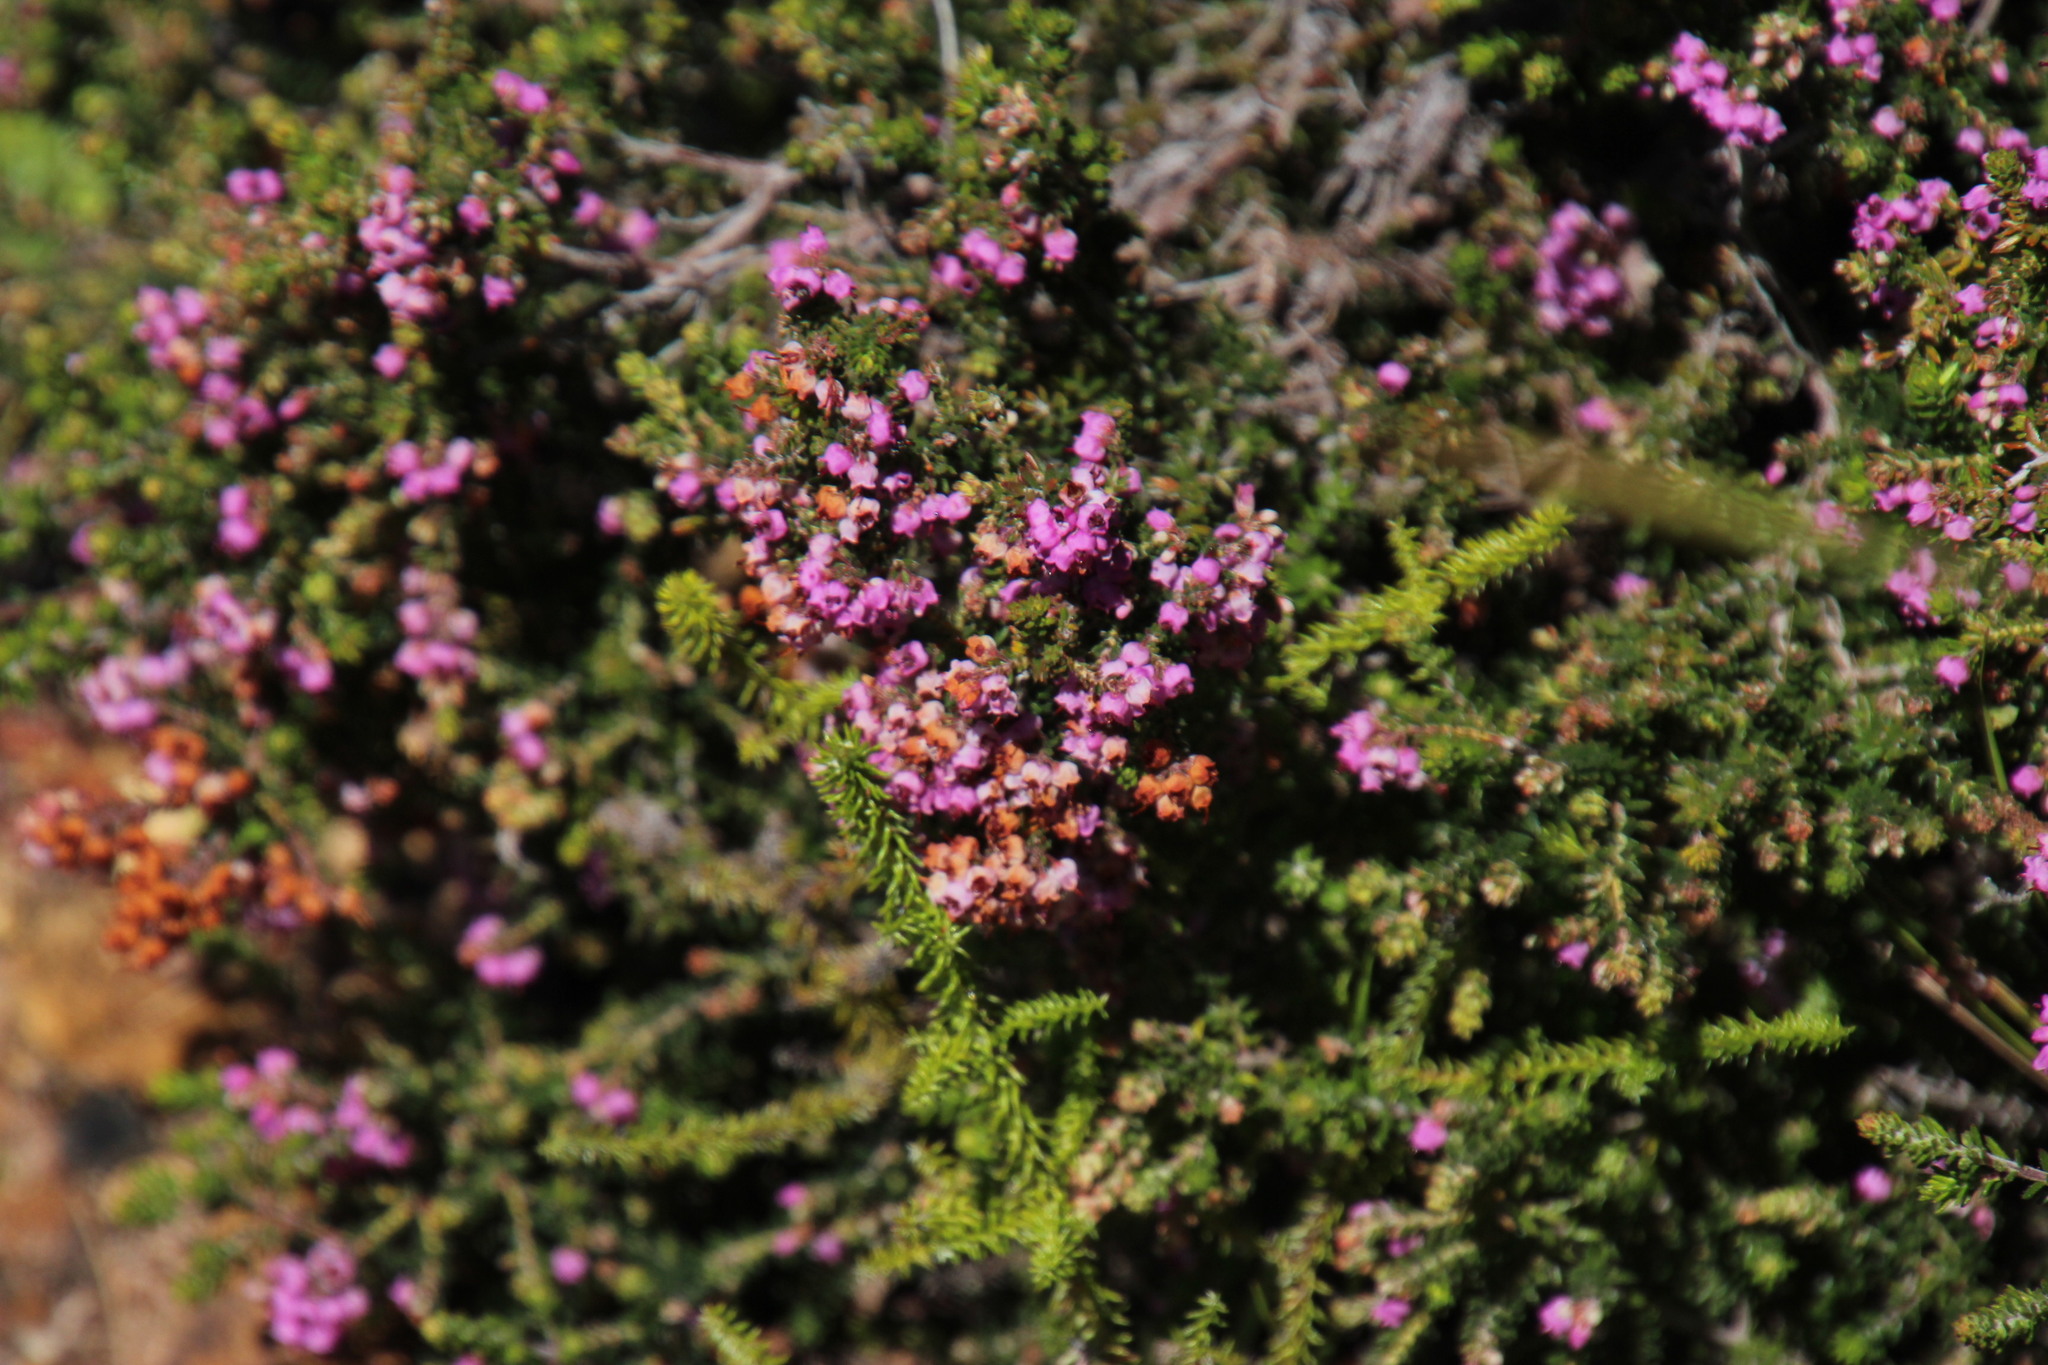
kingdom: Plantae
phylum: Tracheophyta
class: Magnoliopsida
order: Ericales
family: Ericaceae
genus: Erica
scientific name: Erica curvirostris
